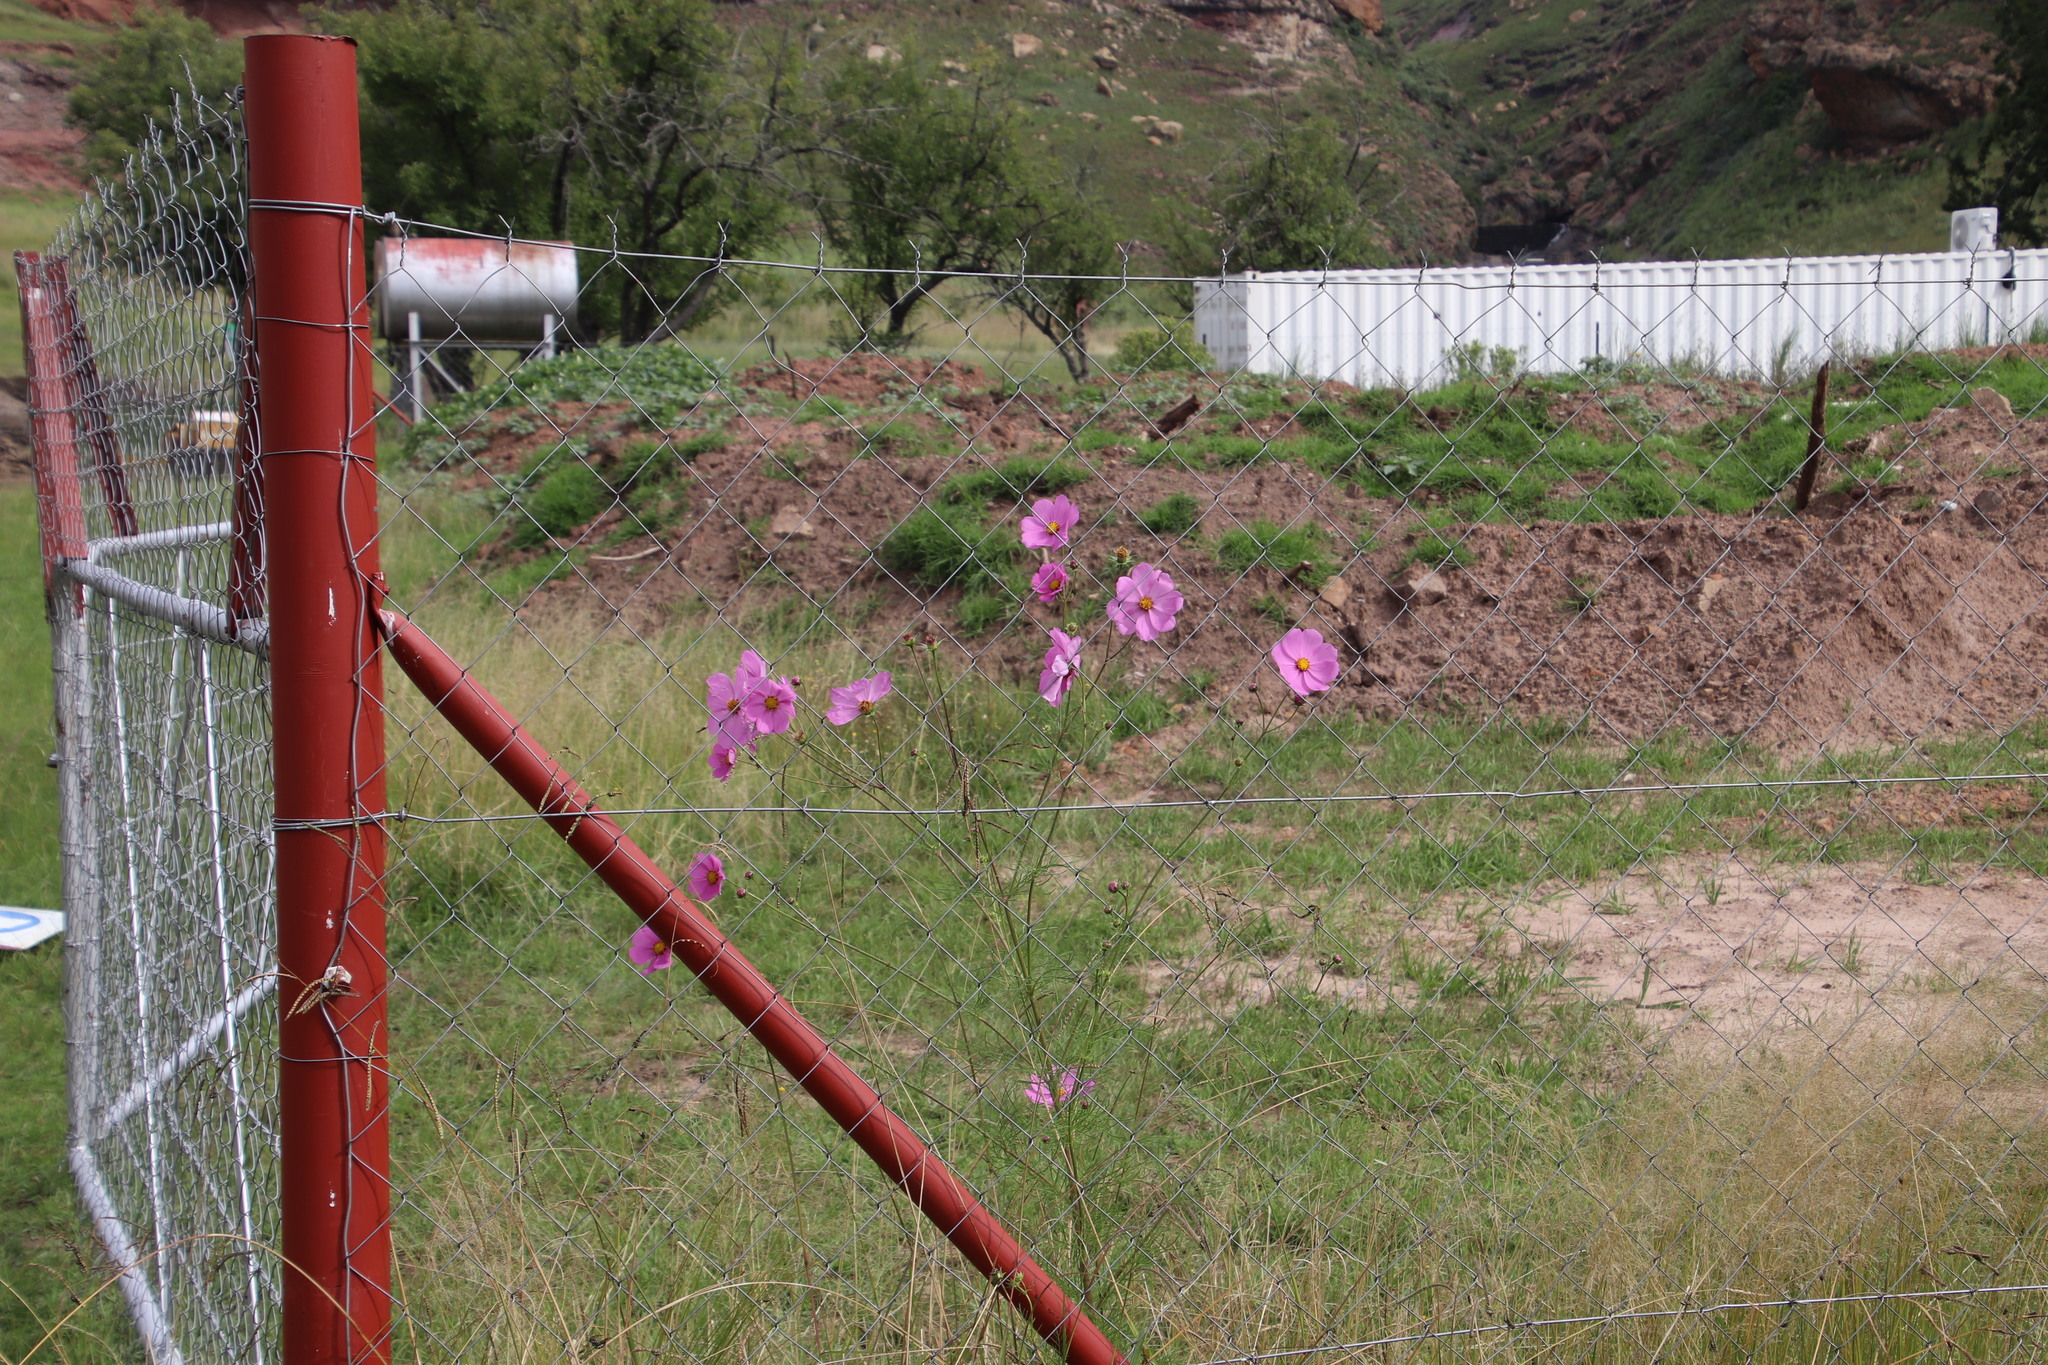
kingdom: Plantae
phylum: Tracheophyta
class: Magnoliopsida
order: Asterales
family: Asteraceae
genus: Cosmos
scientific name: Cosmos bipinnatus
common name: Garden cosmos
